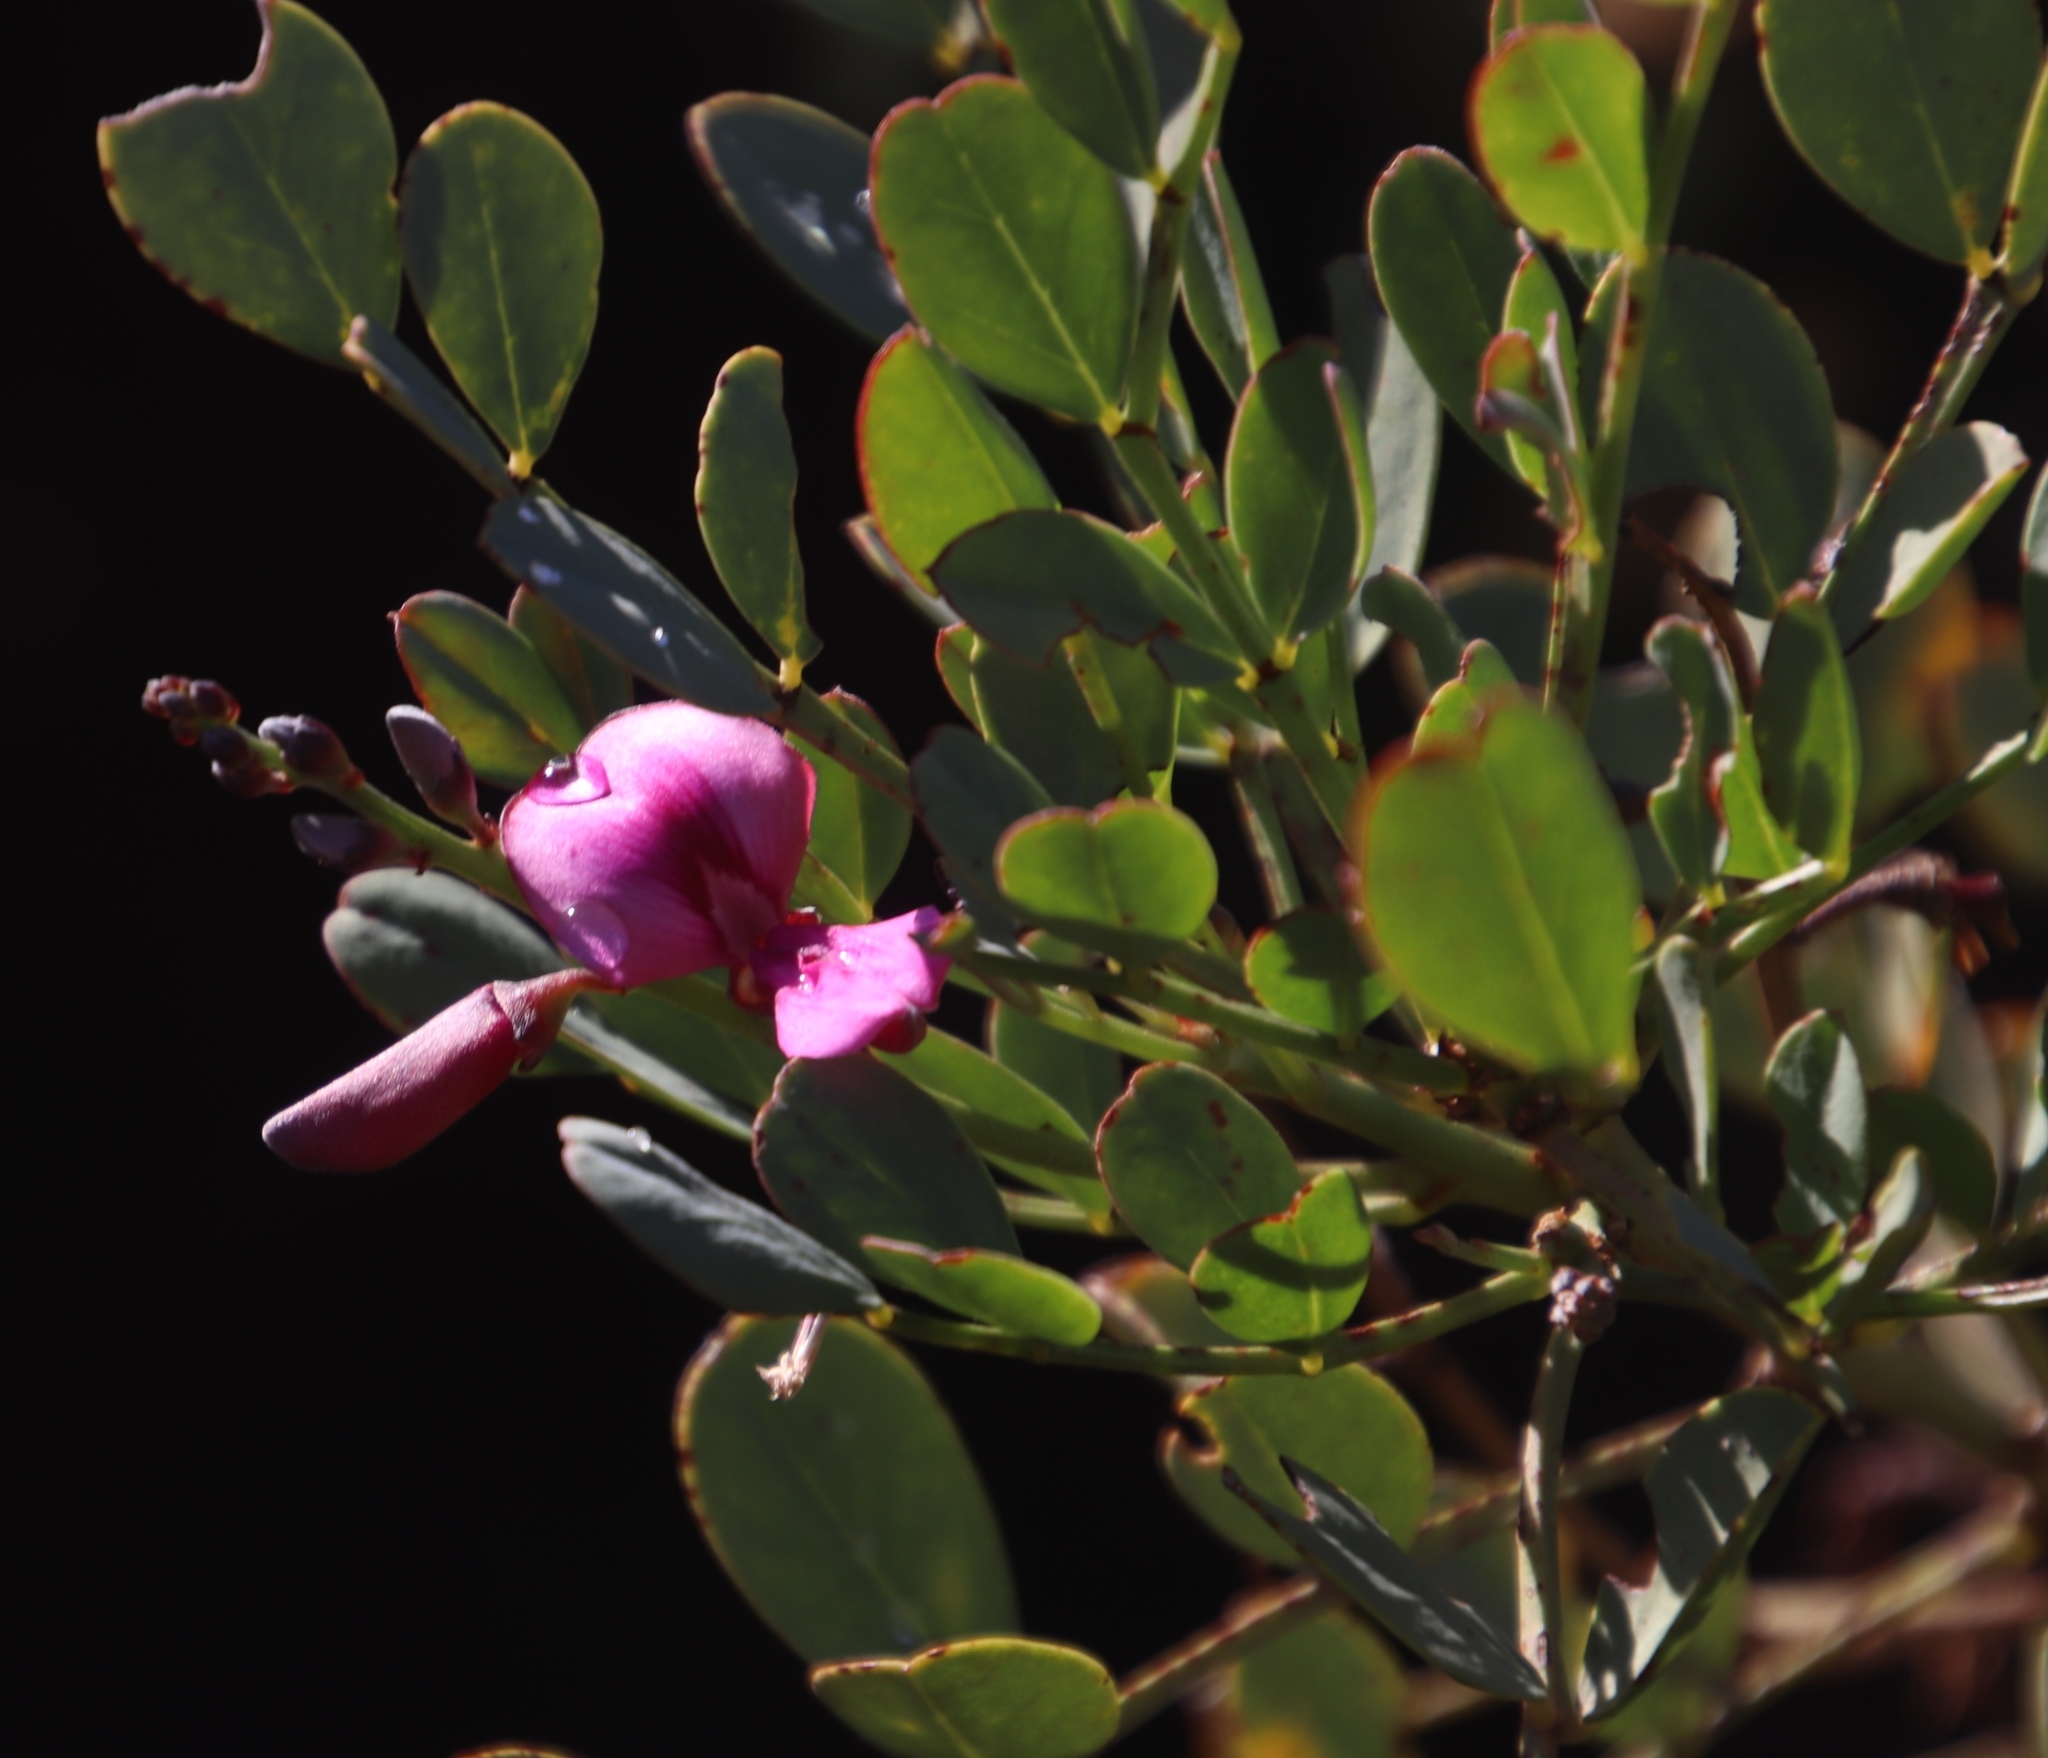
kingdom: Plantae
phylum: Tracheophyta
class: Magnoliopsida
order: Fabales
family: Fabaceae
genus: Indigofera
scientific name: Indigofera frutescens
